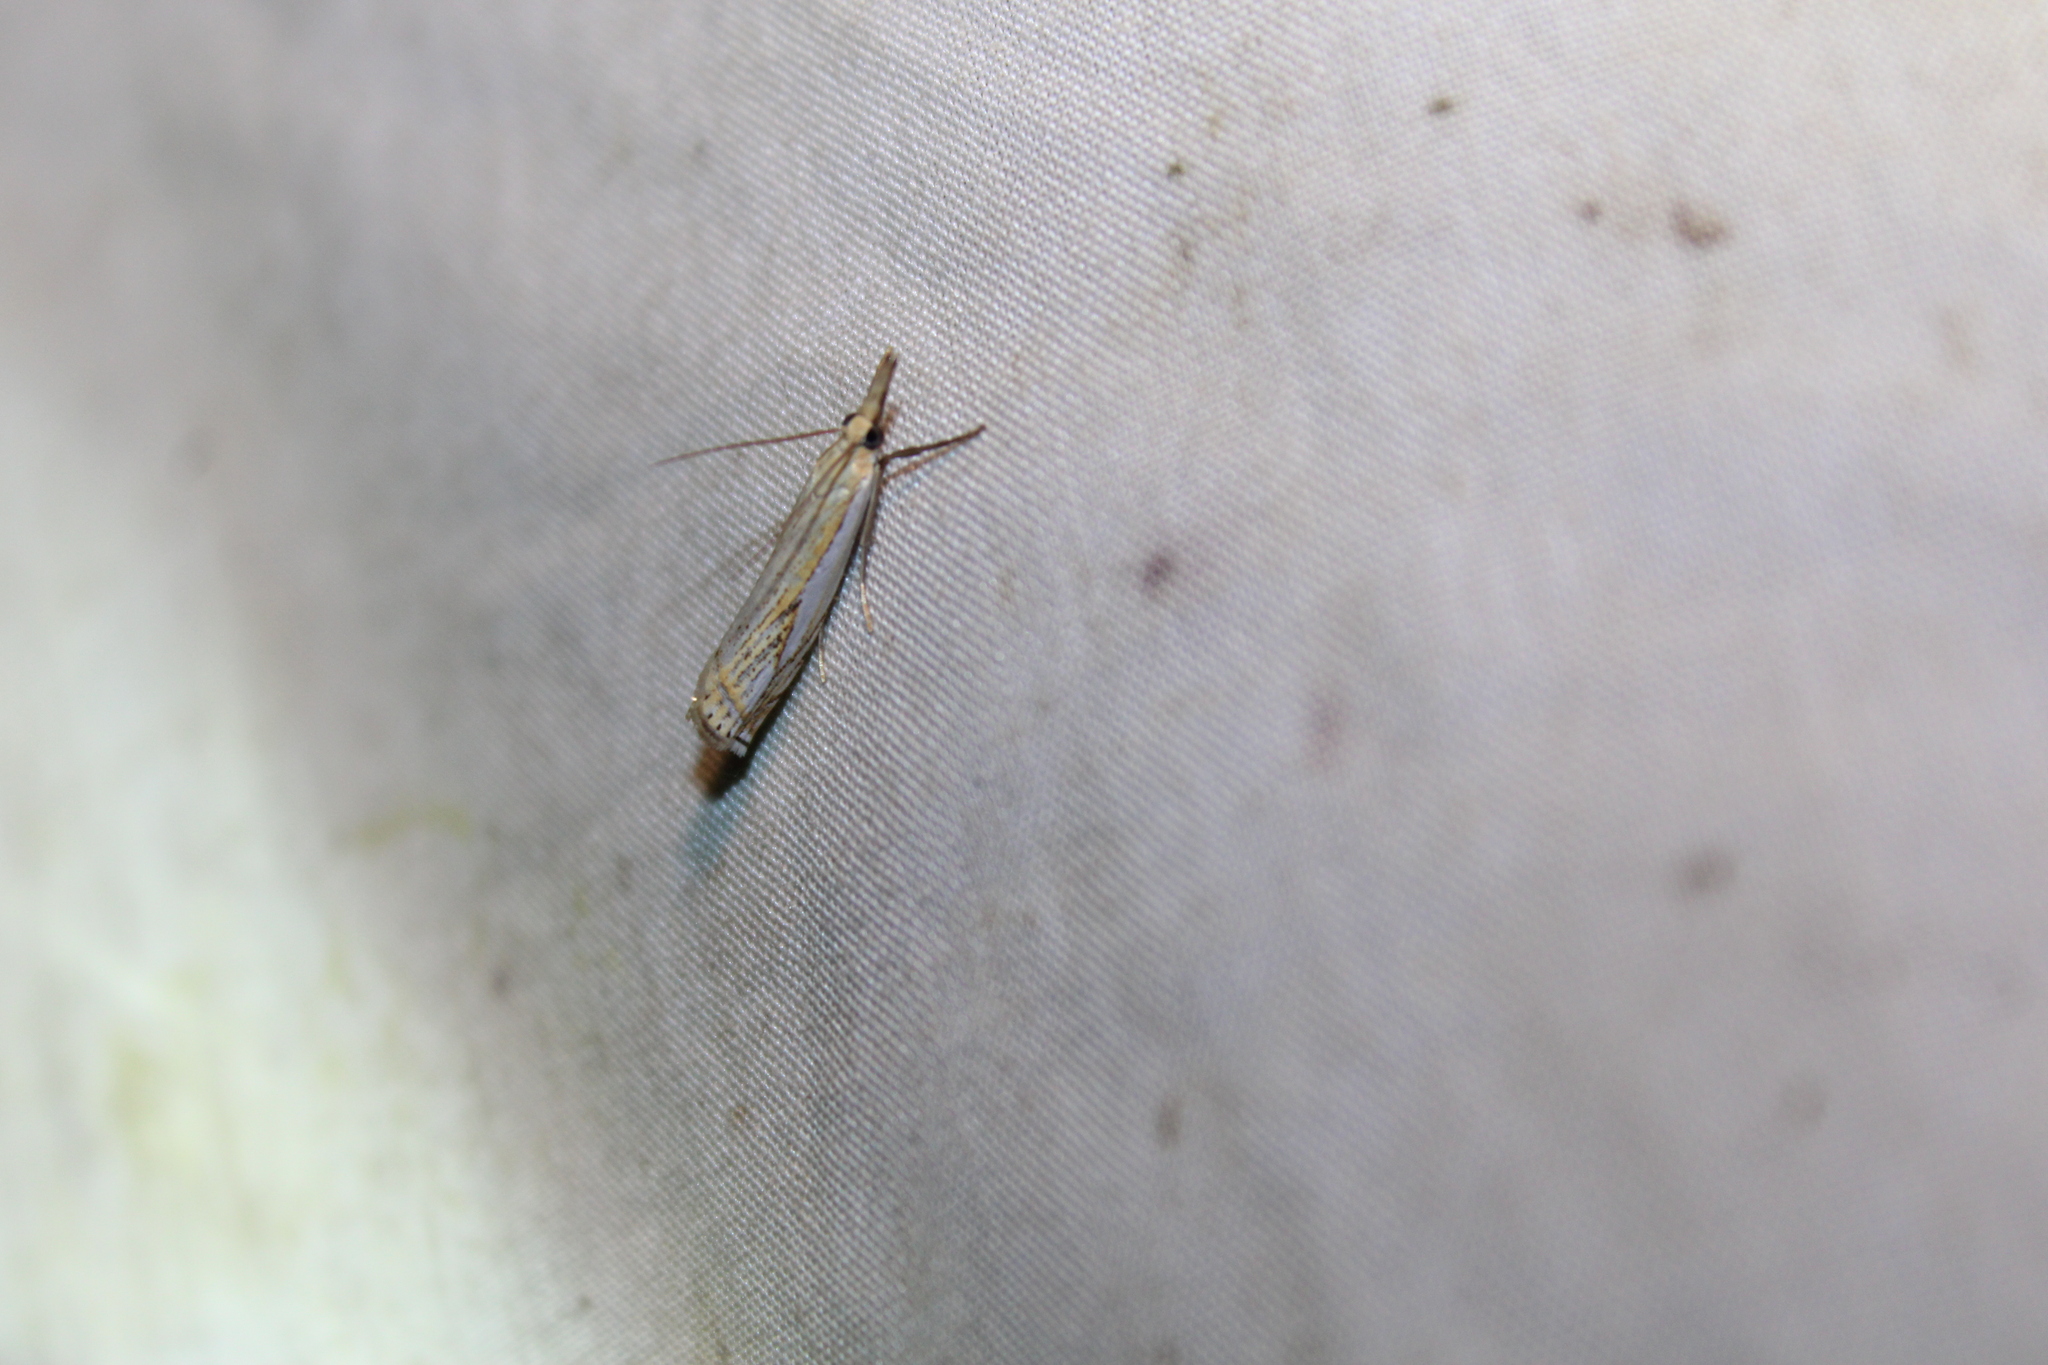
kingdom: Animalia
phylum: Arthropoda
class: Insecta
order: Lepidoptera
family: Crambidae
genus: Crambus
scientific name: Crambus saltuellus
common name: Pasture grass-veneer
